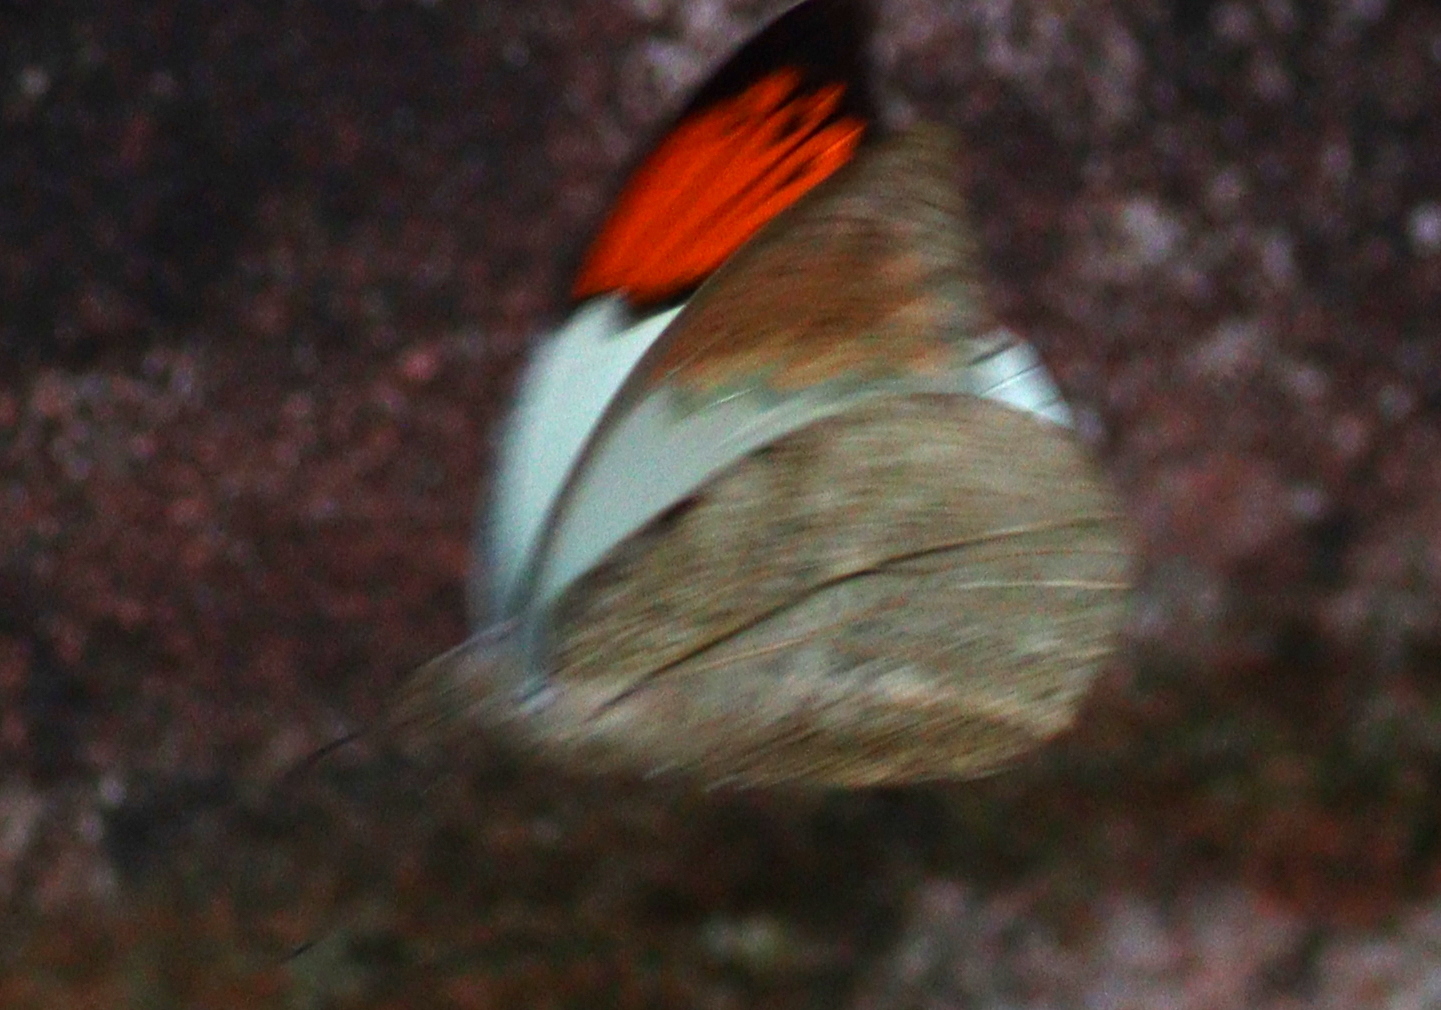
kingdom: Animalia
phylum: Arthropoda
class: Insecta
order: Lepidoptera
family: Pieridae
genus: Hebomoia
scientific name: Hebomoia glaucippe
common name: Great orange tip
